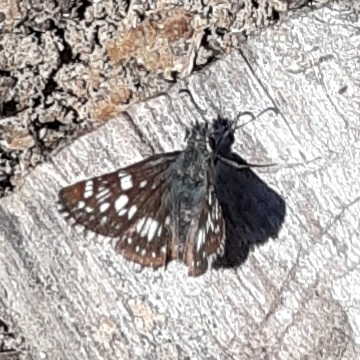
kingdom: Animalia
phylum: Arthropoda
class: Insecta
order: Lepidoptera
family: Hesperiidae
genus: Burnsius
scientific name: Burnsius
